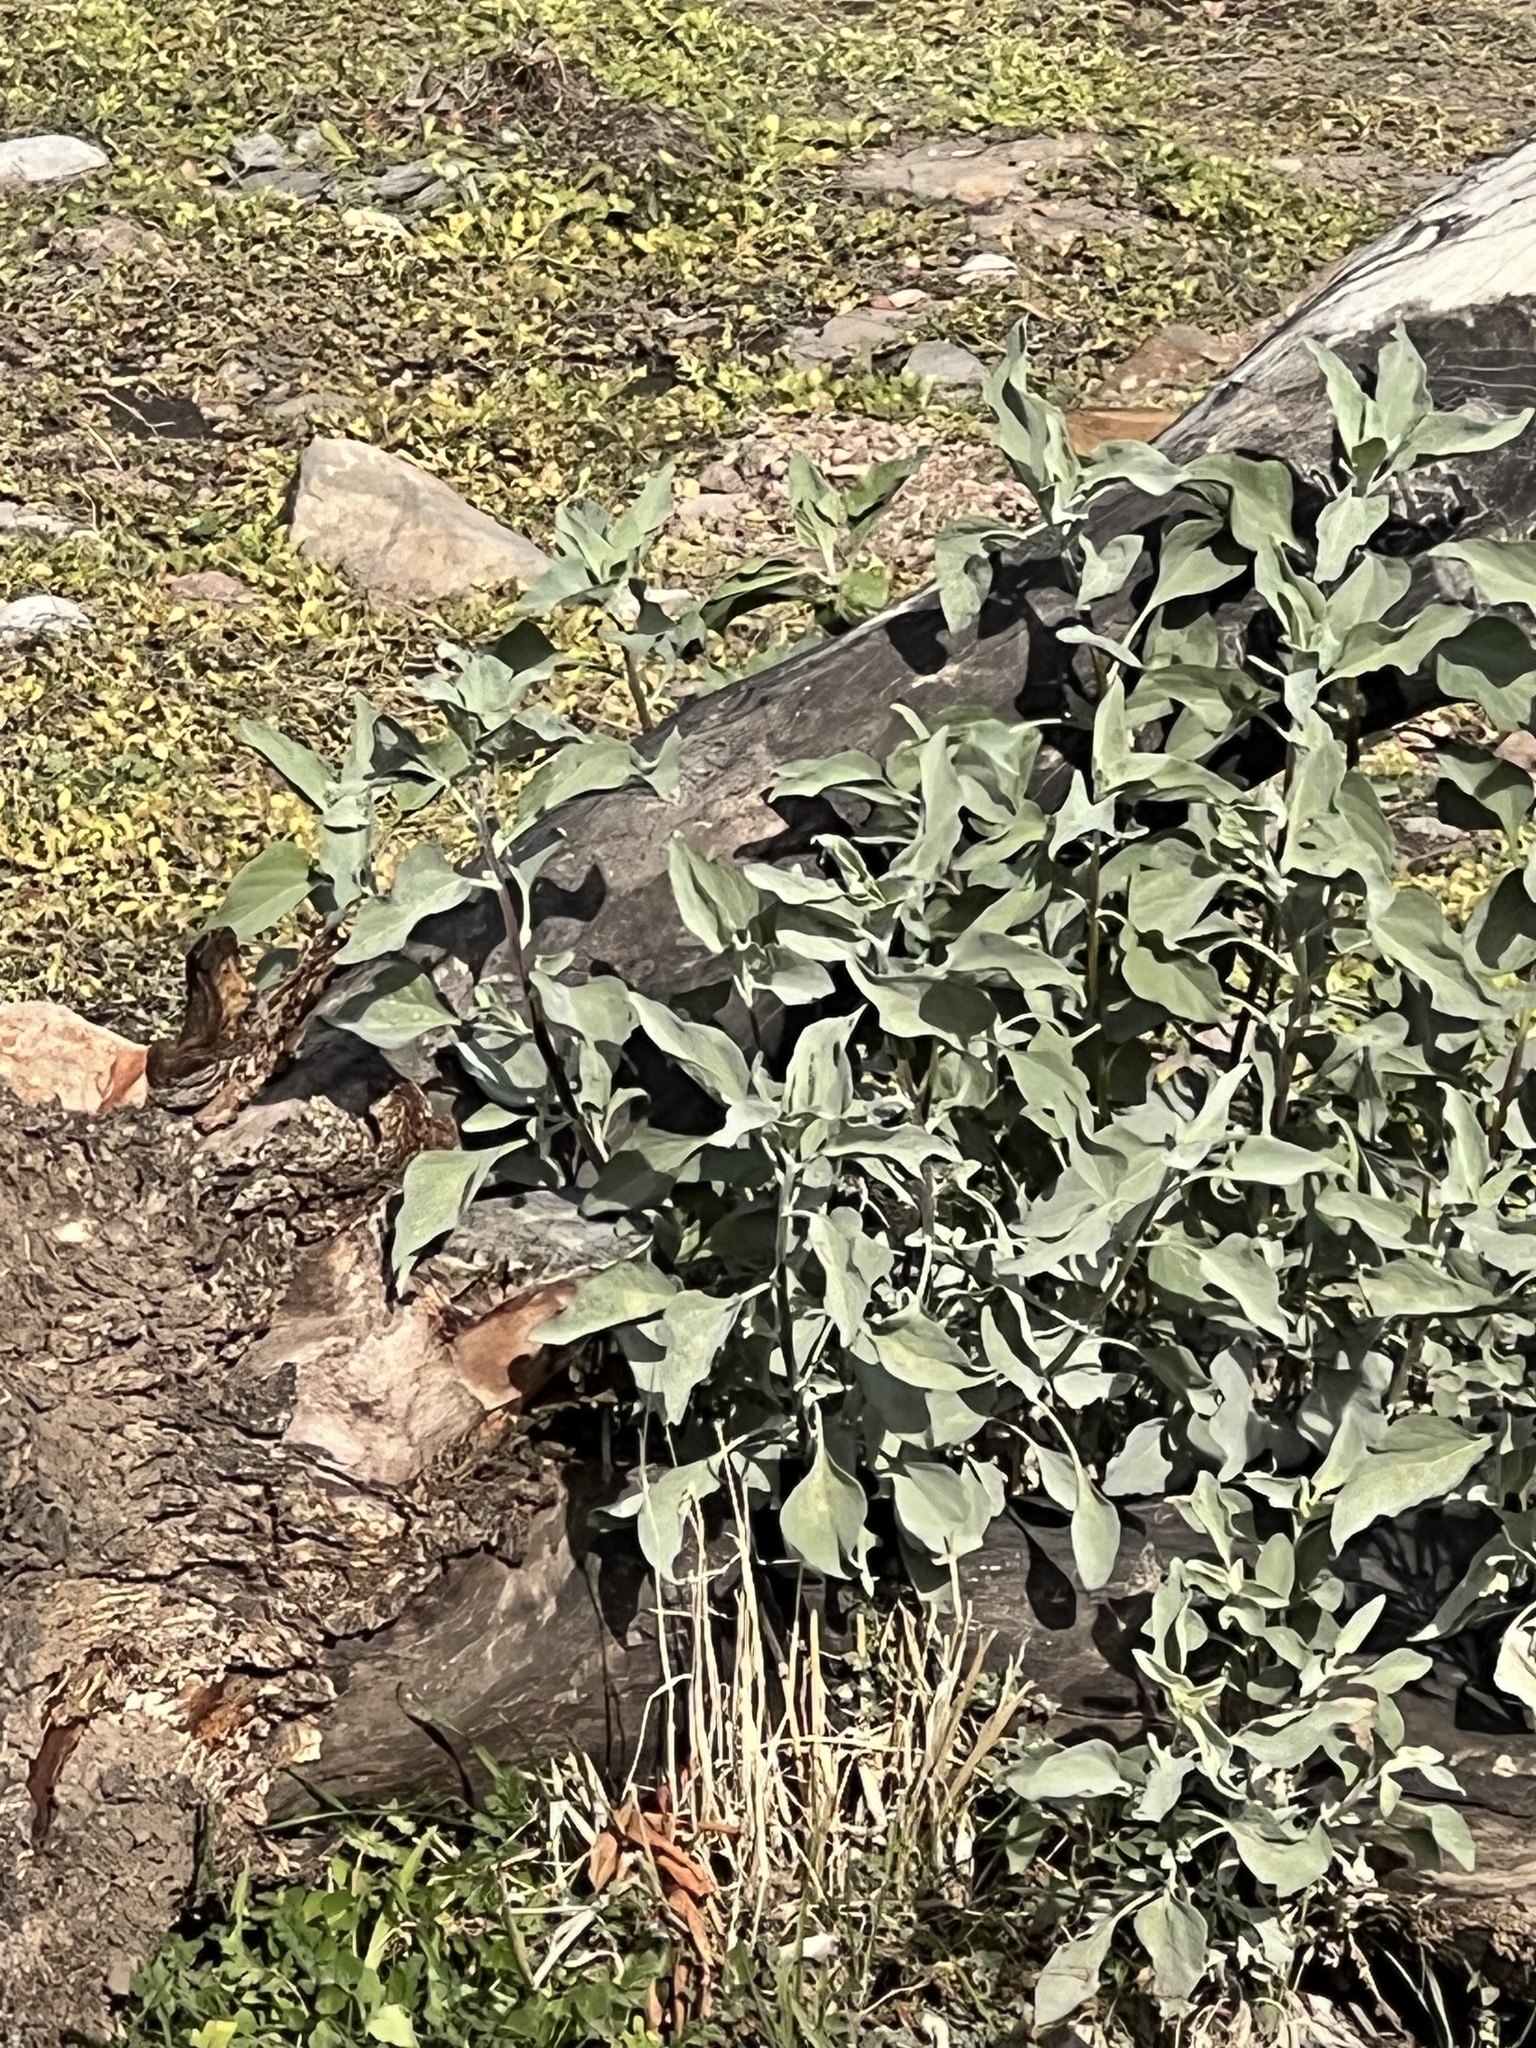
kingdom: Plantae
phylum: Tracheophyta
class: Magnoliopsida
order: Asterales
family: Asteraceae
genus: Encelia
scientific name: Encelia farinosa
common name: Brittlebush
